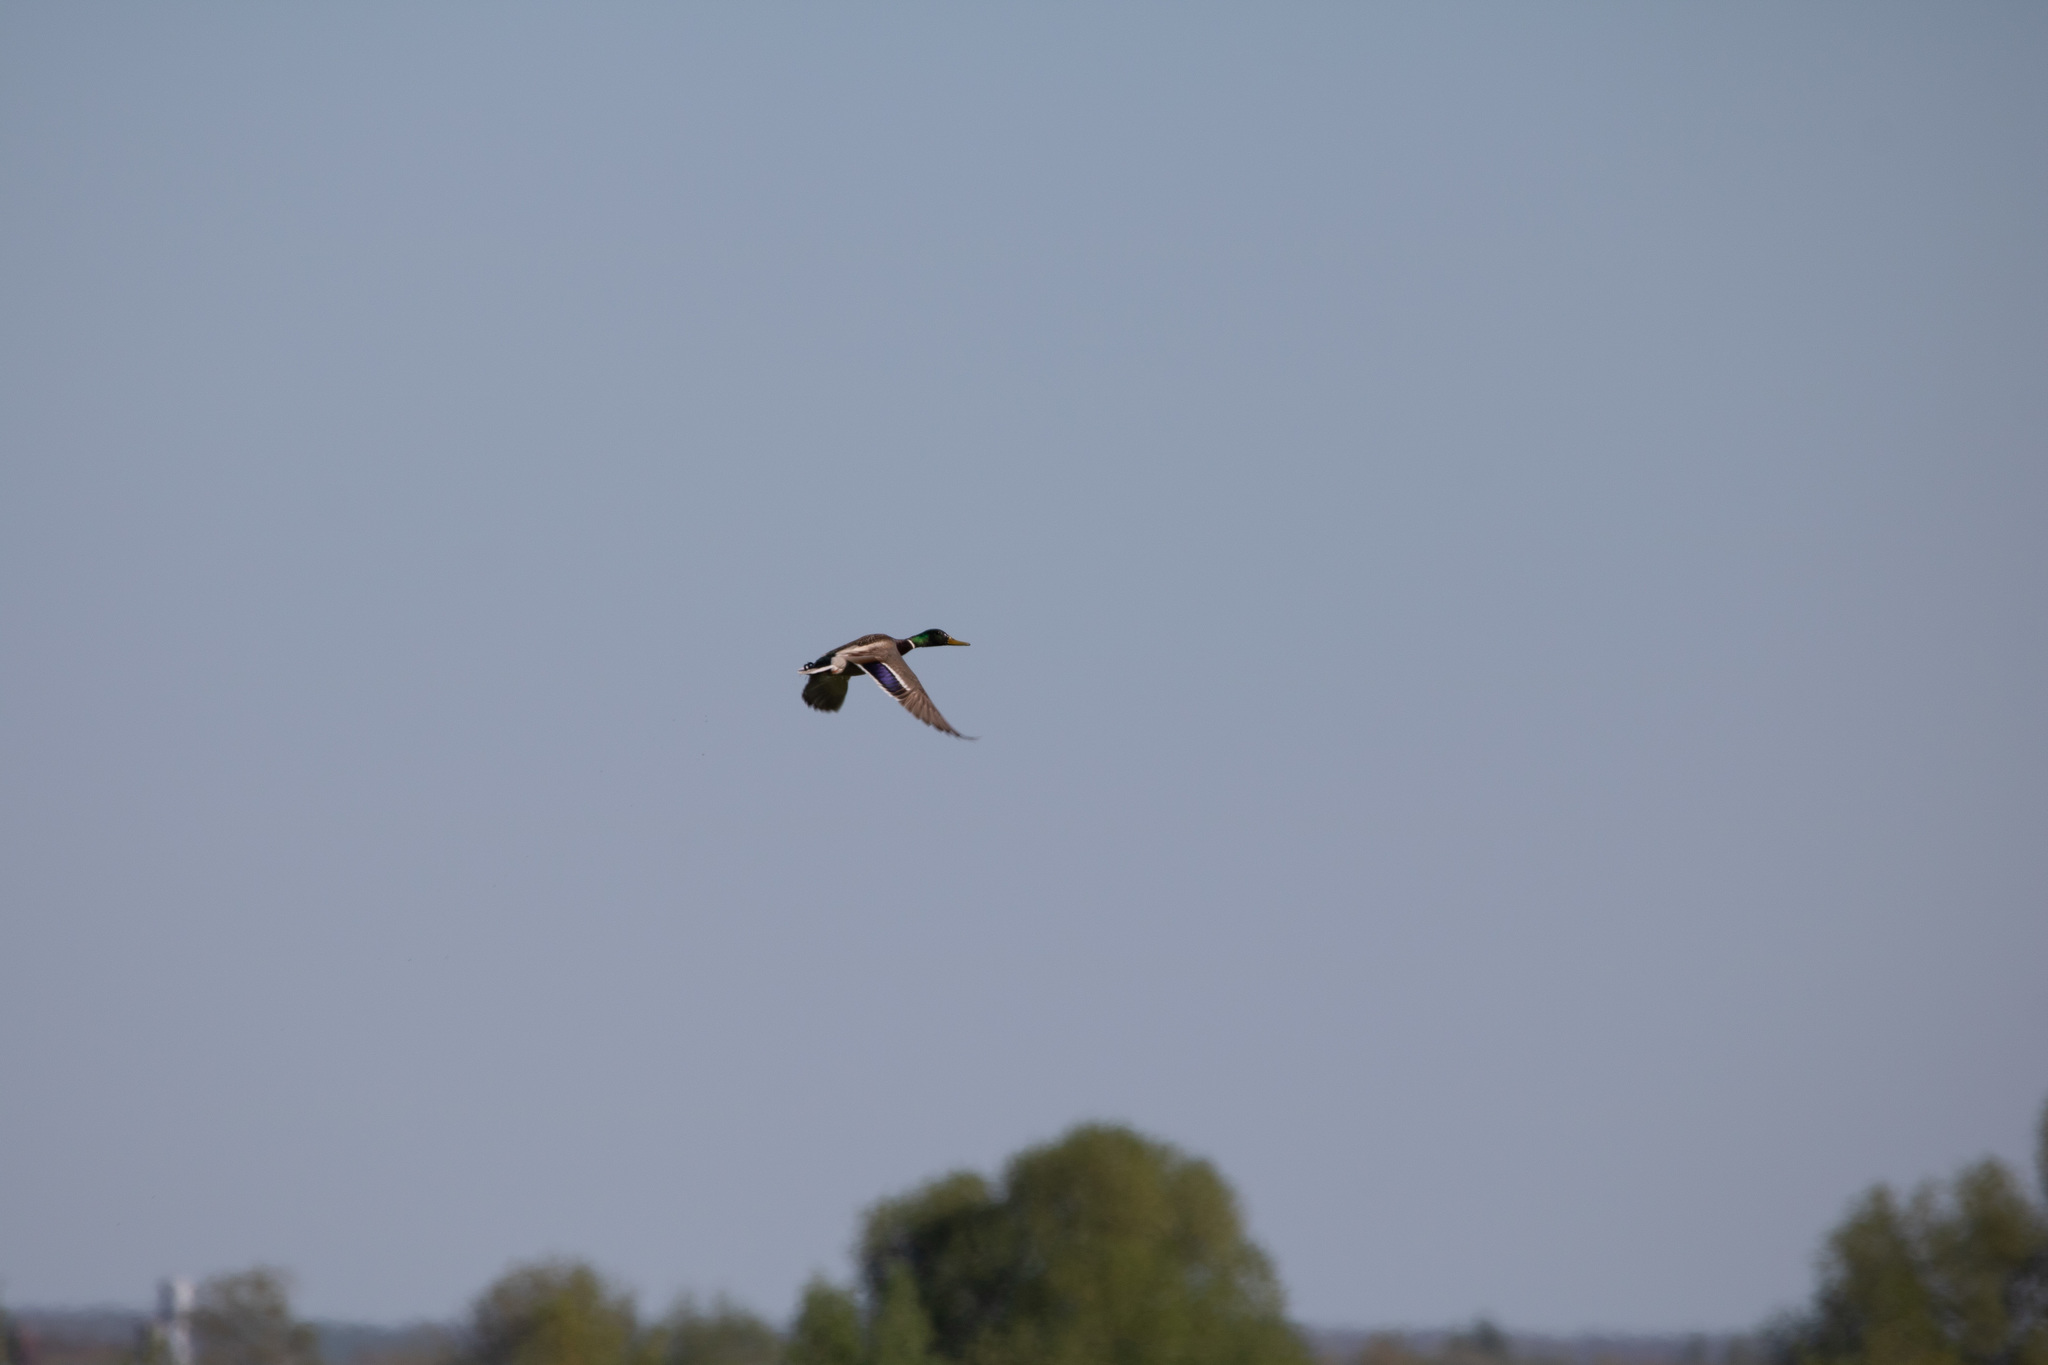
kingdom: Animalia
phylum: Chordata
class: Aves
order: Anseriformes
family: Anatidae
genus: Anas
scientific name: Anas platyrhynchos
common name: Mallard
